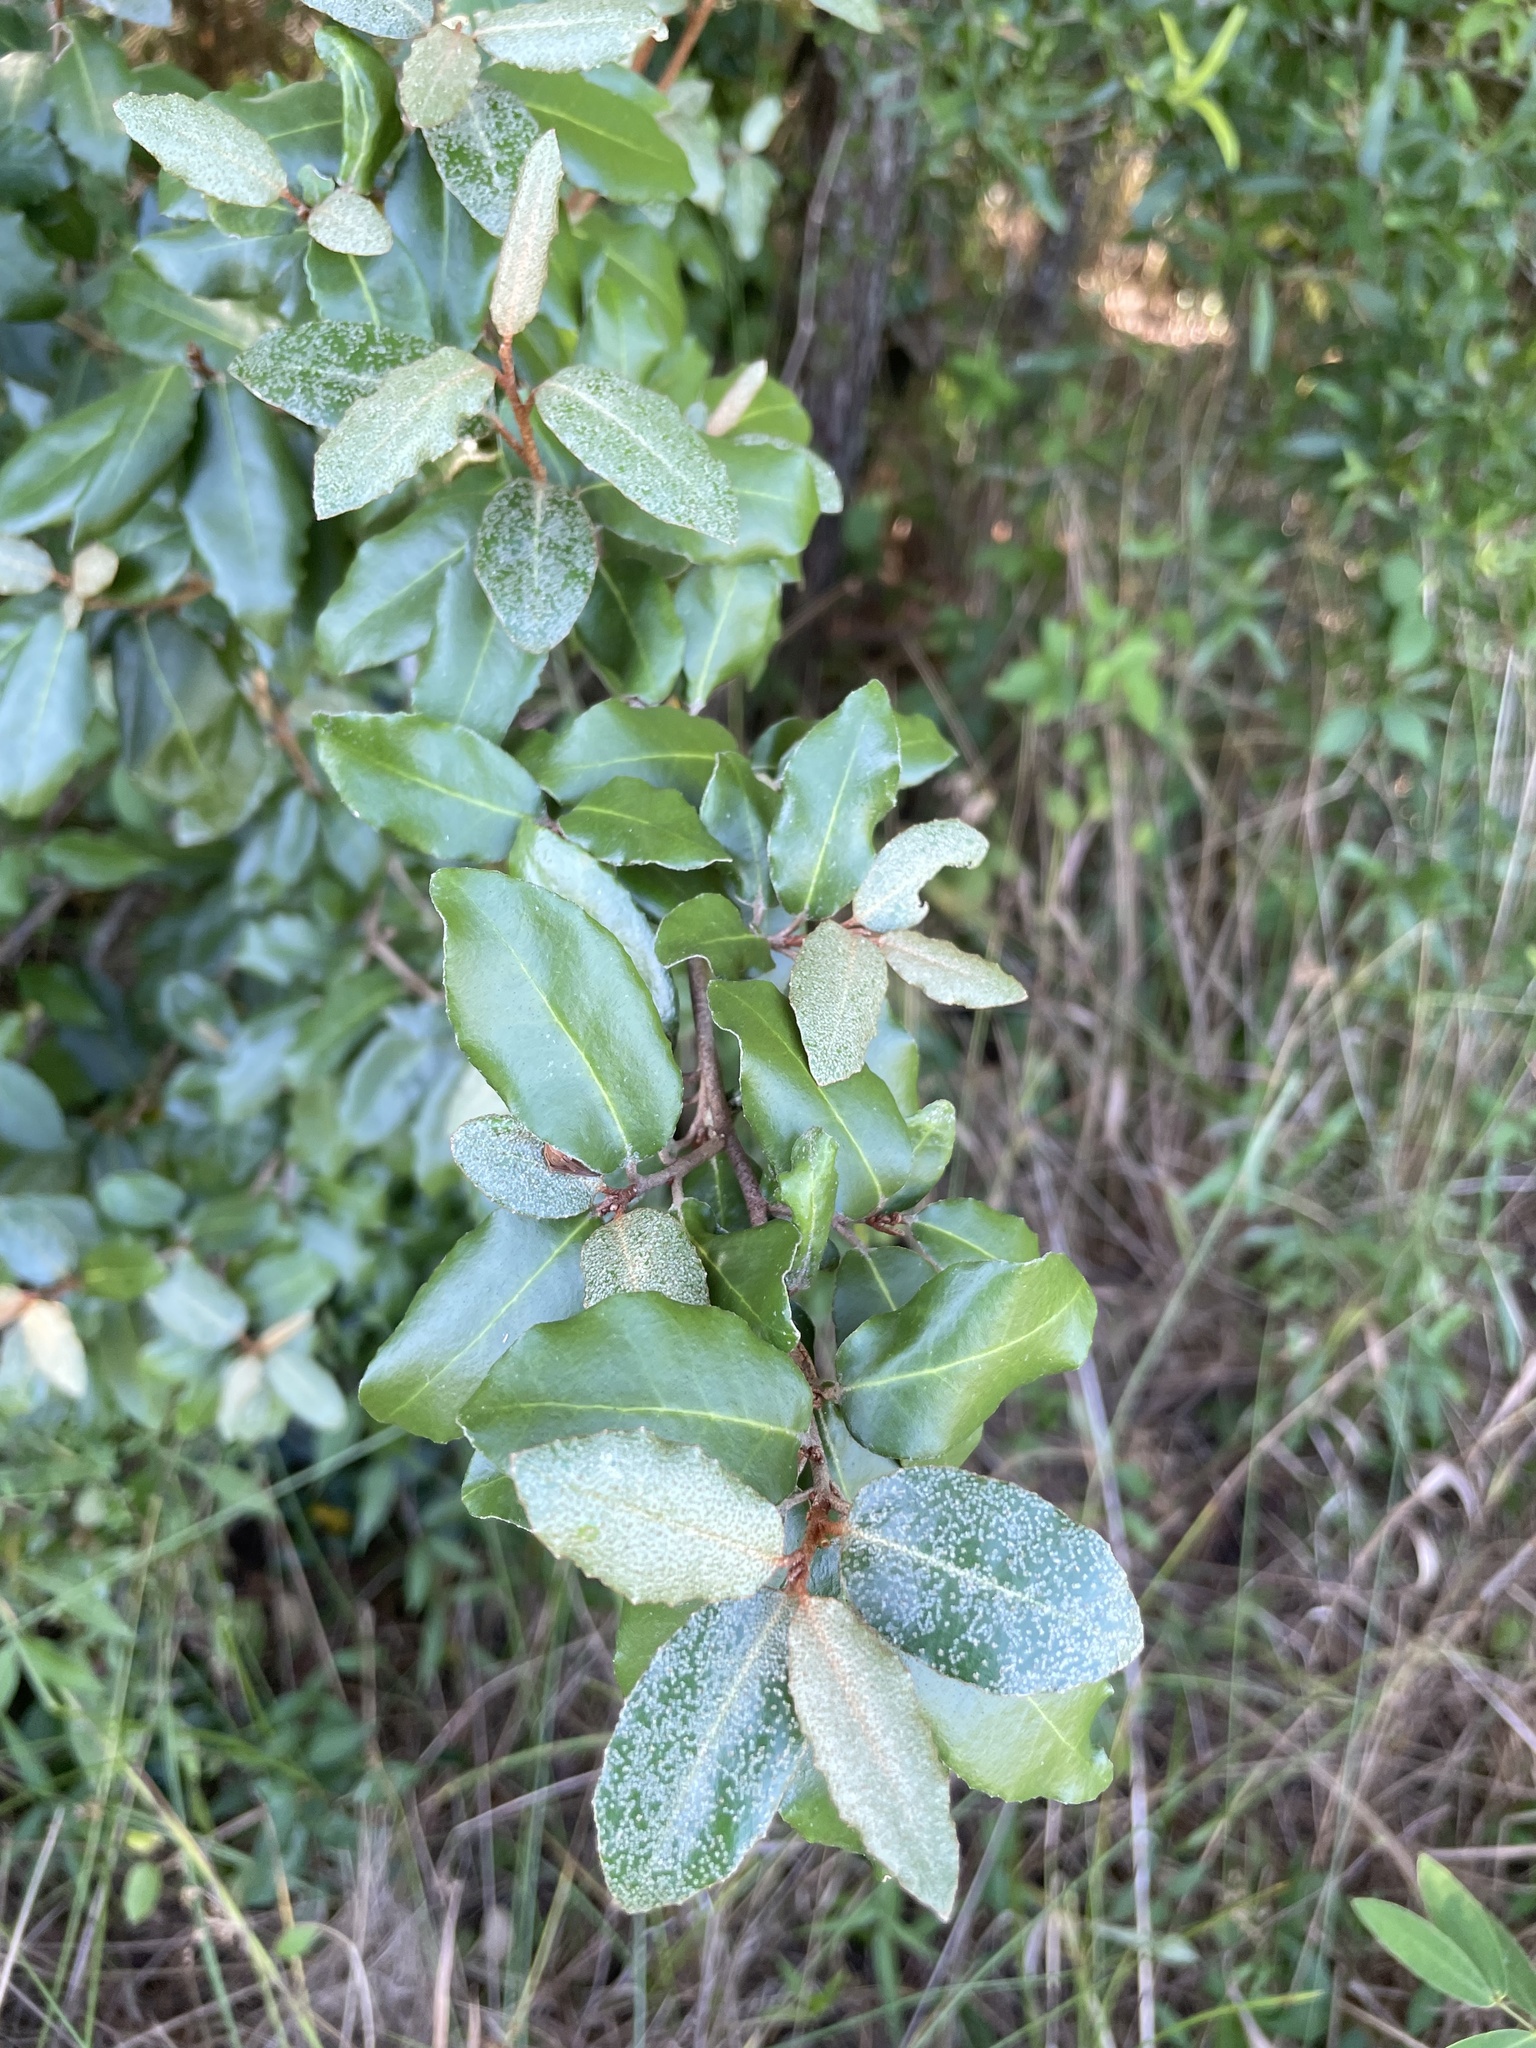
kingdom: Plantae
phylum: Tracheophyta
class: Magnoliopsida
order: Rosales
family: Elaeagnaceae
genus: Elaeagnus
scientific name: Elaeagnus pungens
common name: Spiny oleaster
